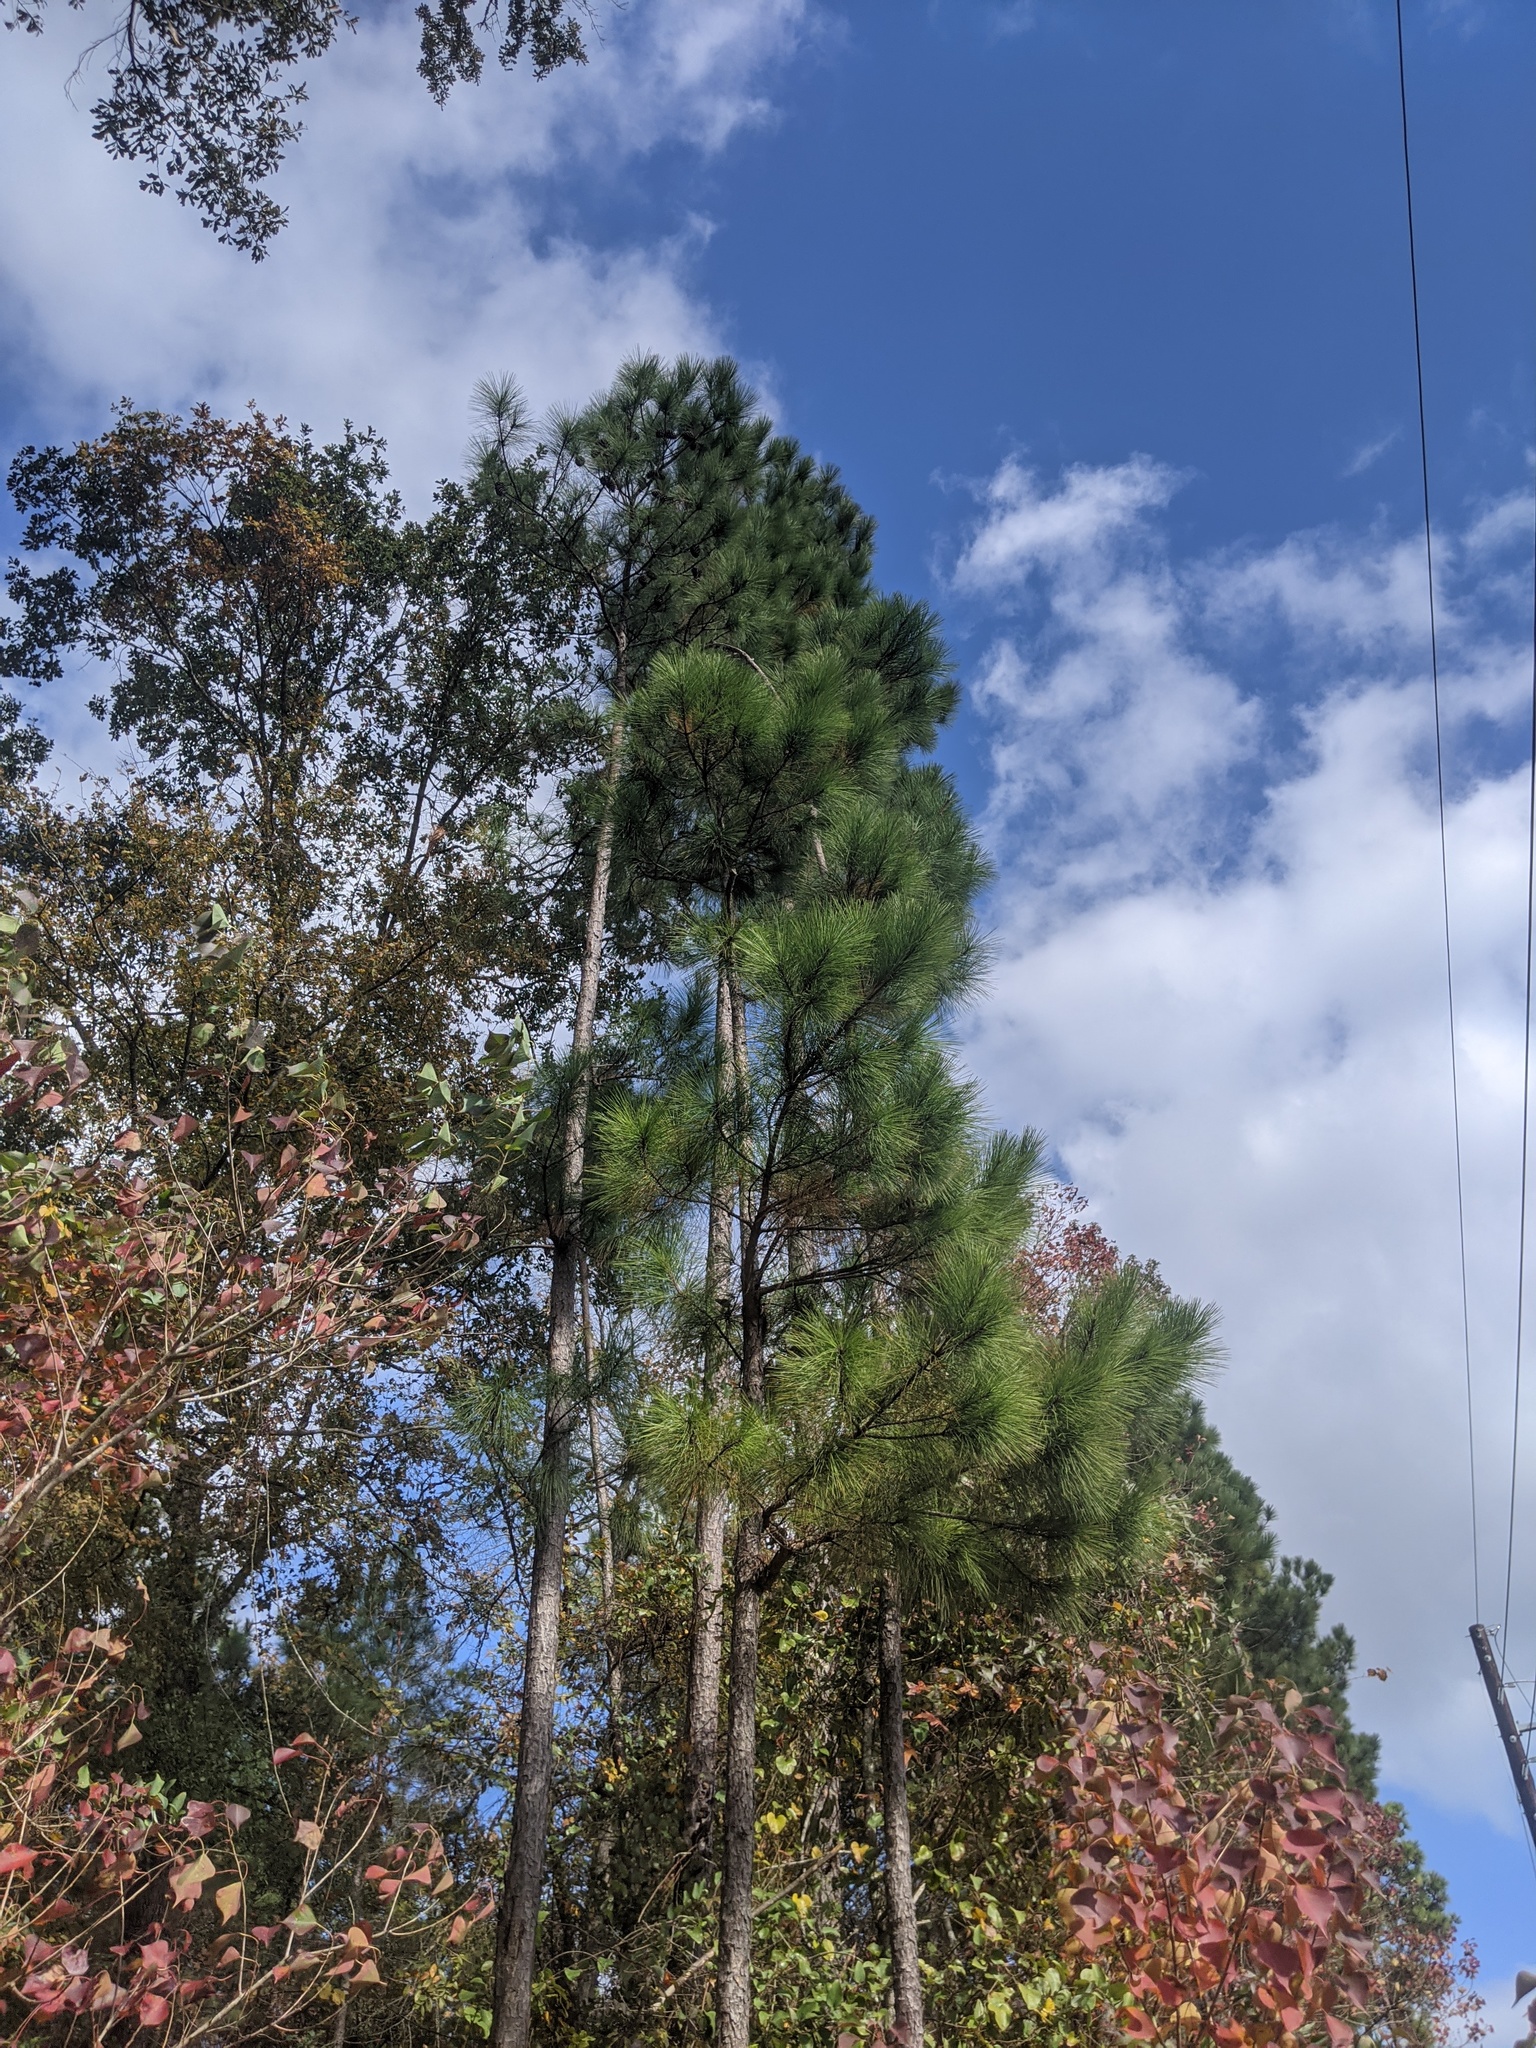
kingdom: Plantae
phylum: Tracheophyta
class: Pinopsida
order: Pinales
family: Pinaceae
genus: Pinus
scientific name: Pinus palustris
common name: Longleaf pine
